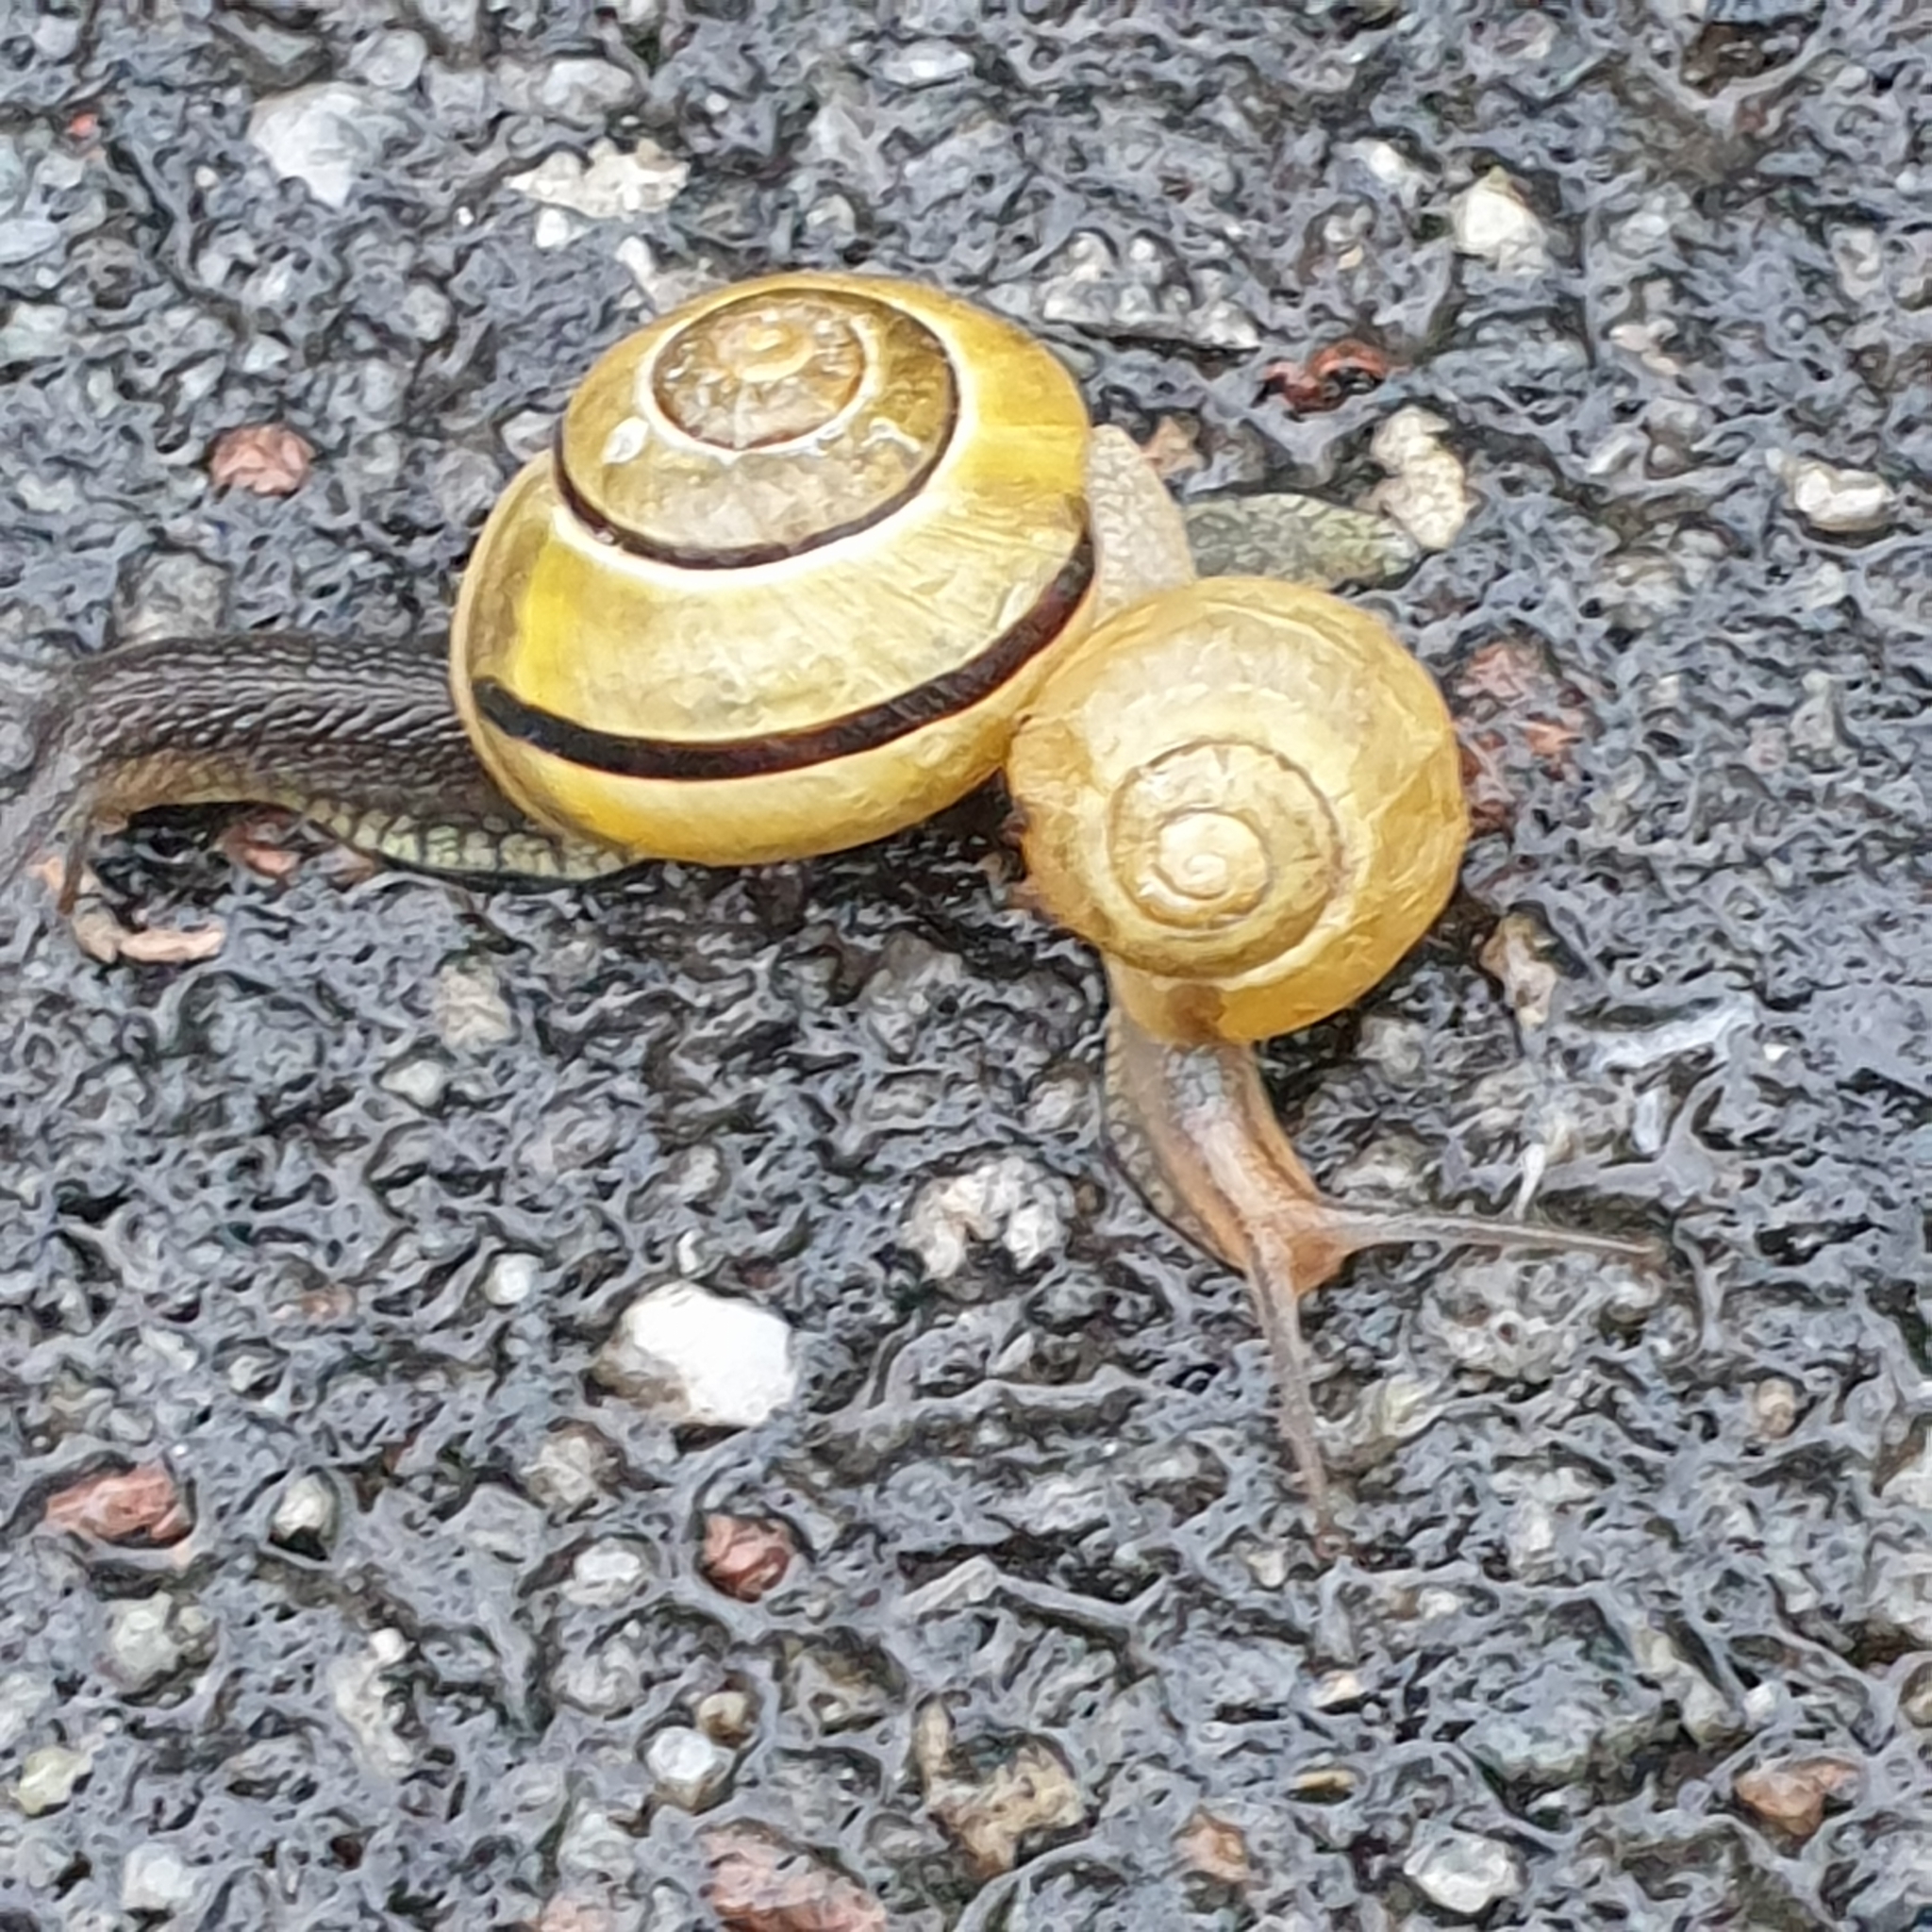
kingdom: Animalia
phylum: Mollusca
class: Gastropoda
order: Stylommatophora
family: Helicidae
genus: Cepaea
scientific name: Cepaea nemoralis
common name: Grovesnail
